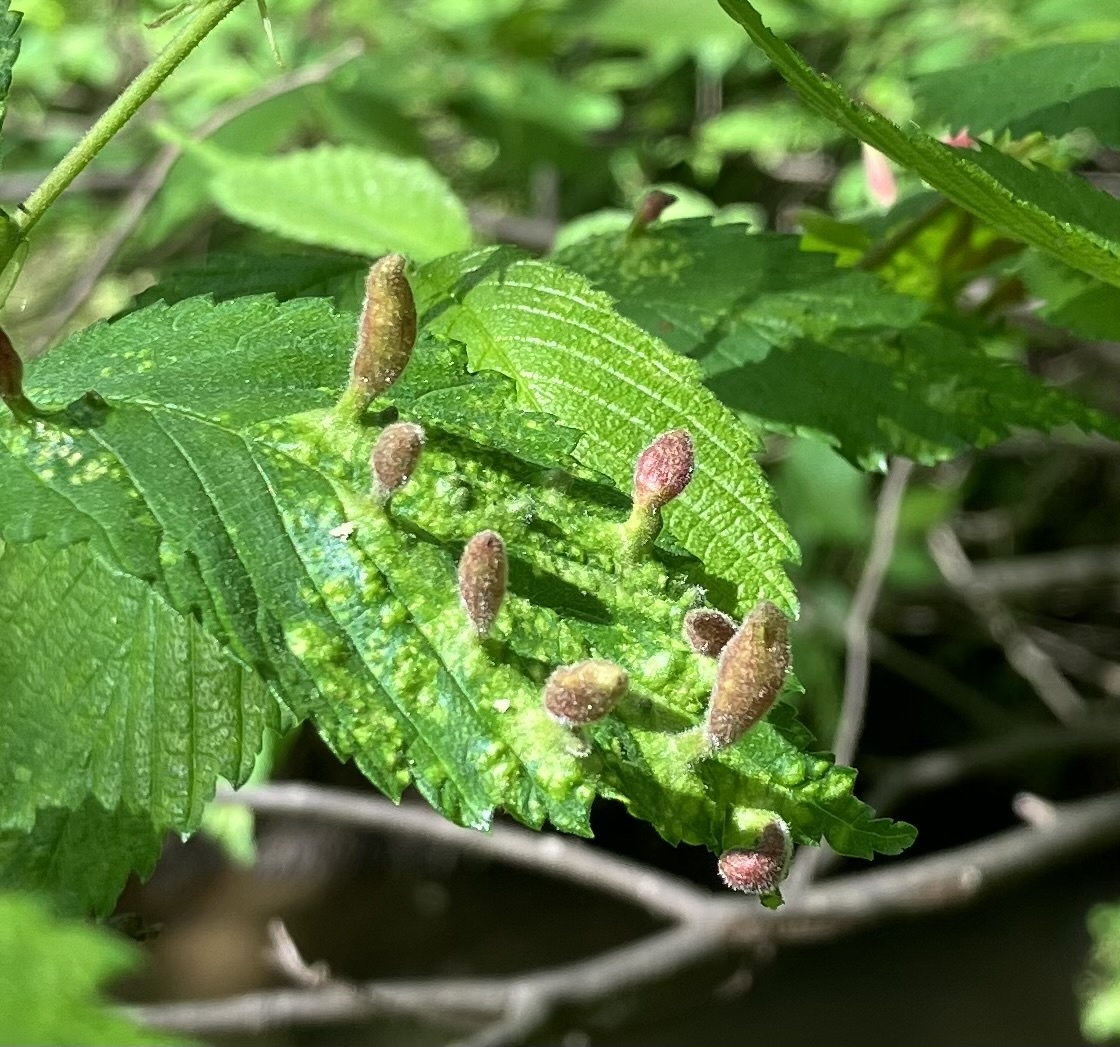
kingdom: Animalia
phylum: Arthropoda
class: Insecta
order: Hemiptera
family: Aphididae
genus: Tetraneura
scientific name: Tetraneura nigriabdominalis
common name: Aphid
